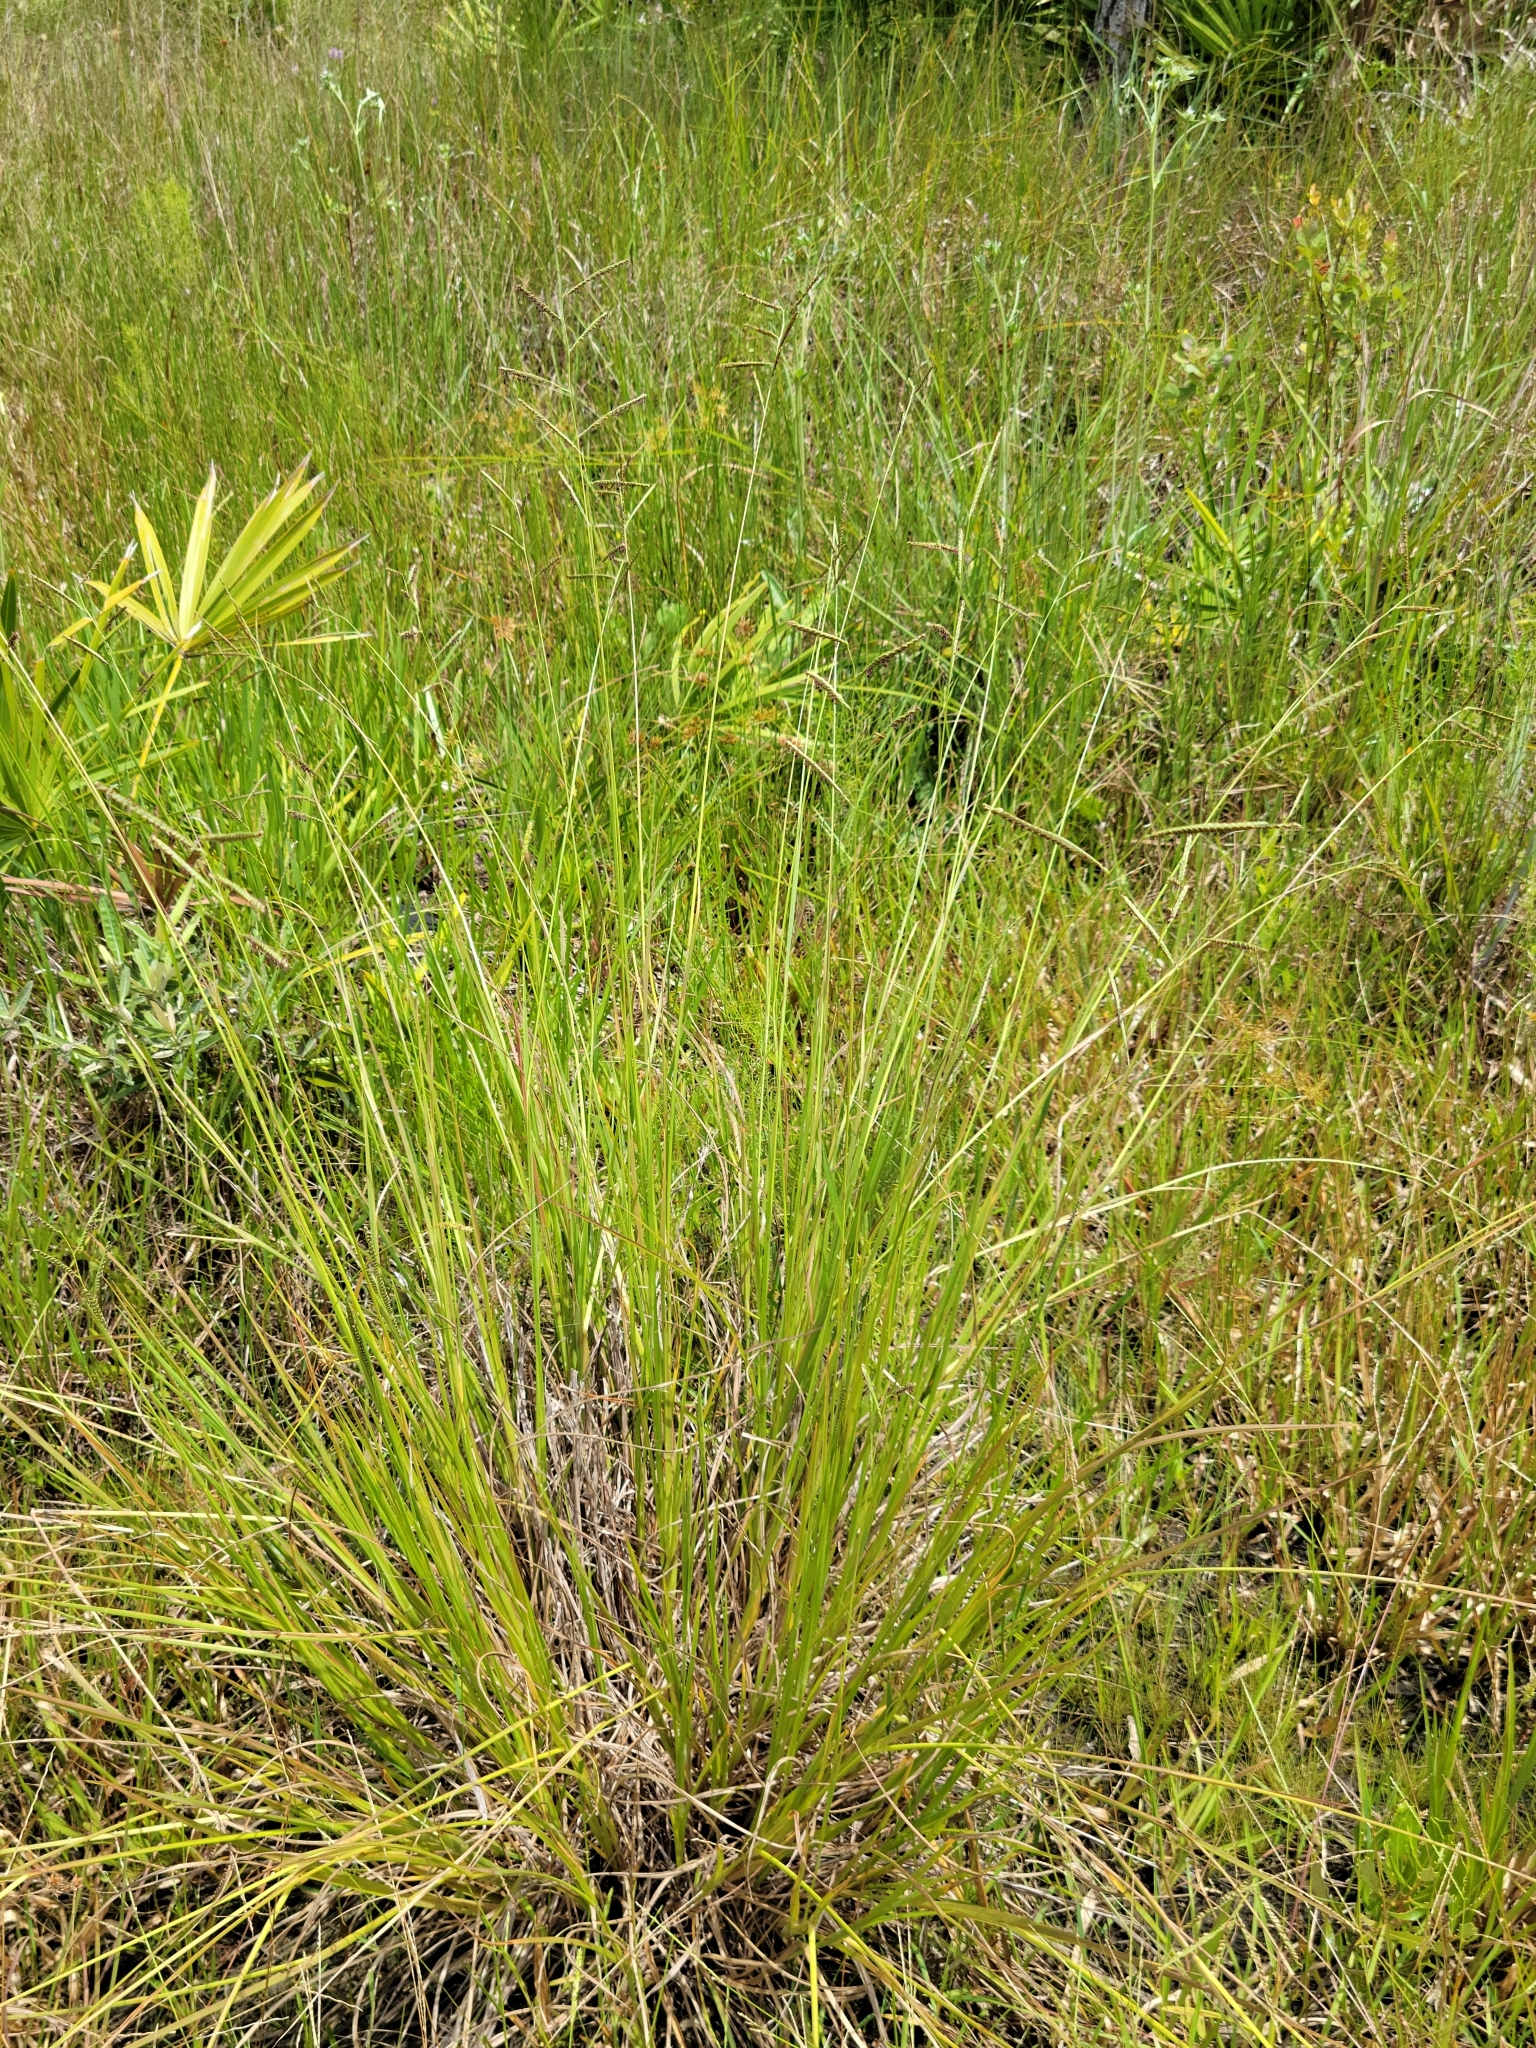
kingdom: Plantae
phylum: Tracheophyta
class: Liliopsida
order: Poales
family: Poaceae
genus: Paspalum
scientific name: Paspalum plicatulum
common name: Top paspalum
